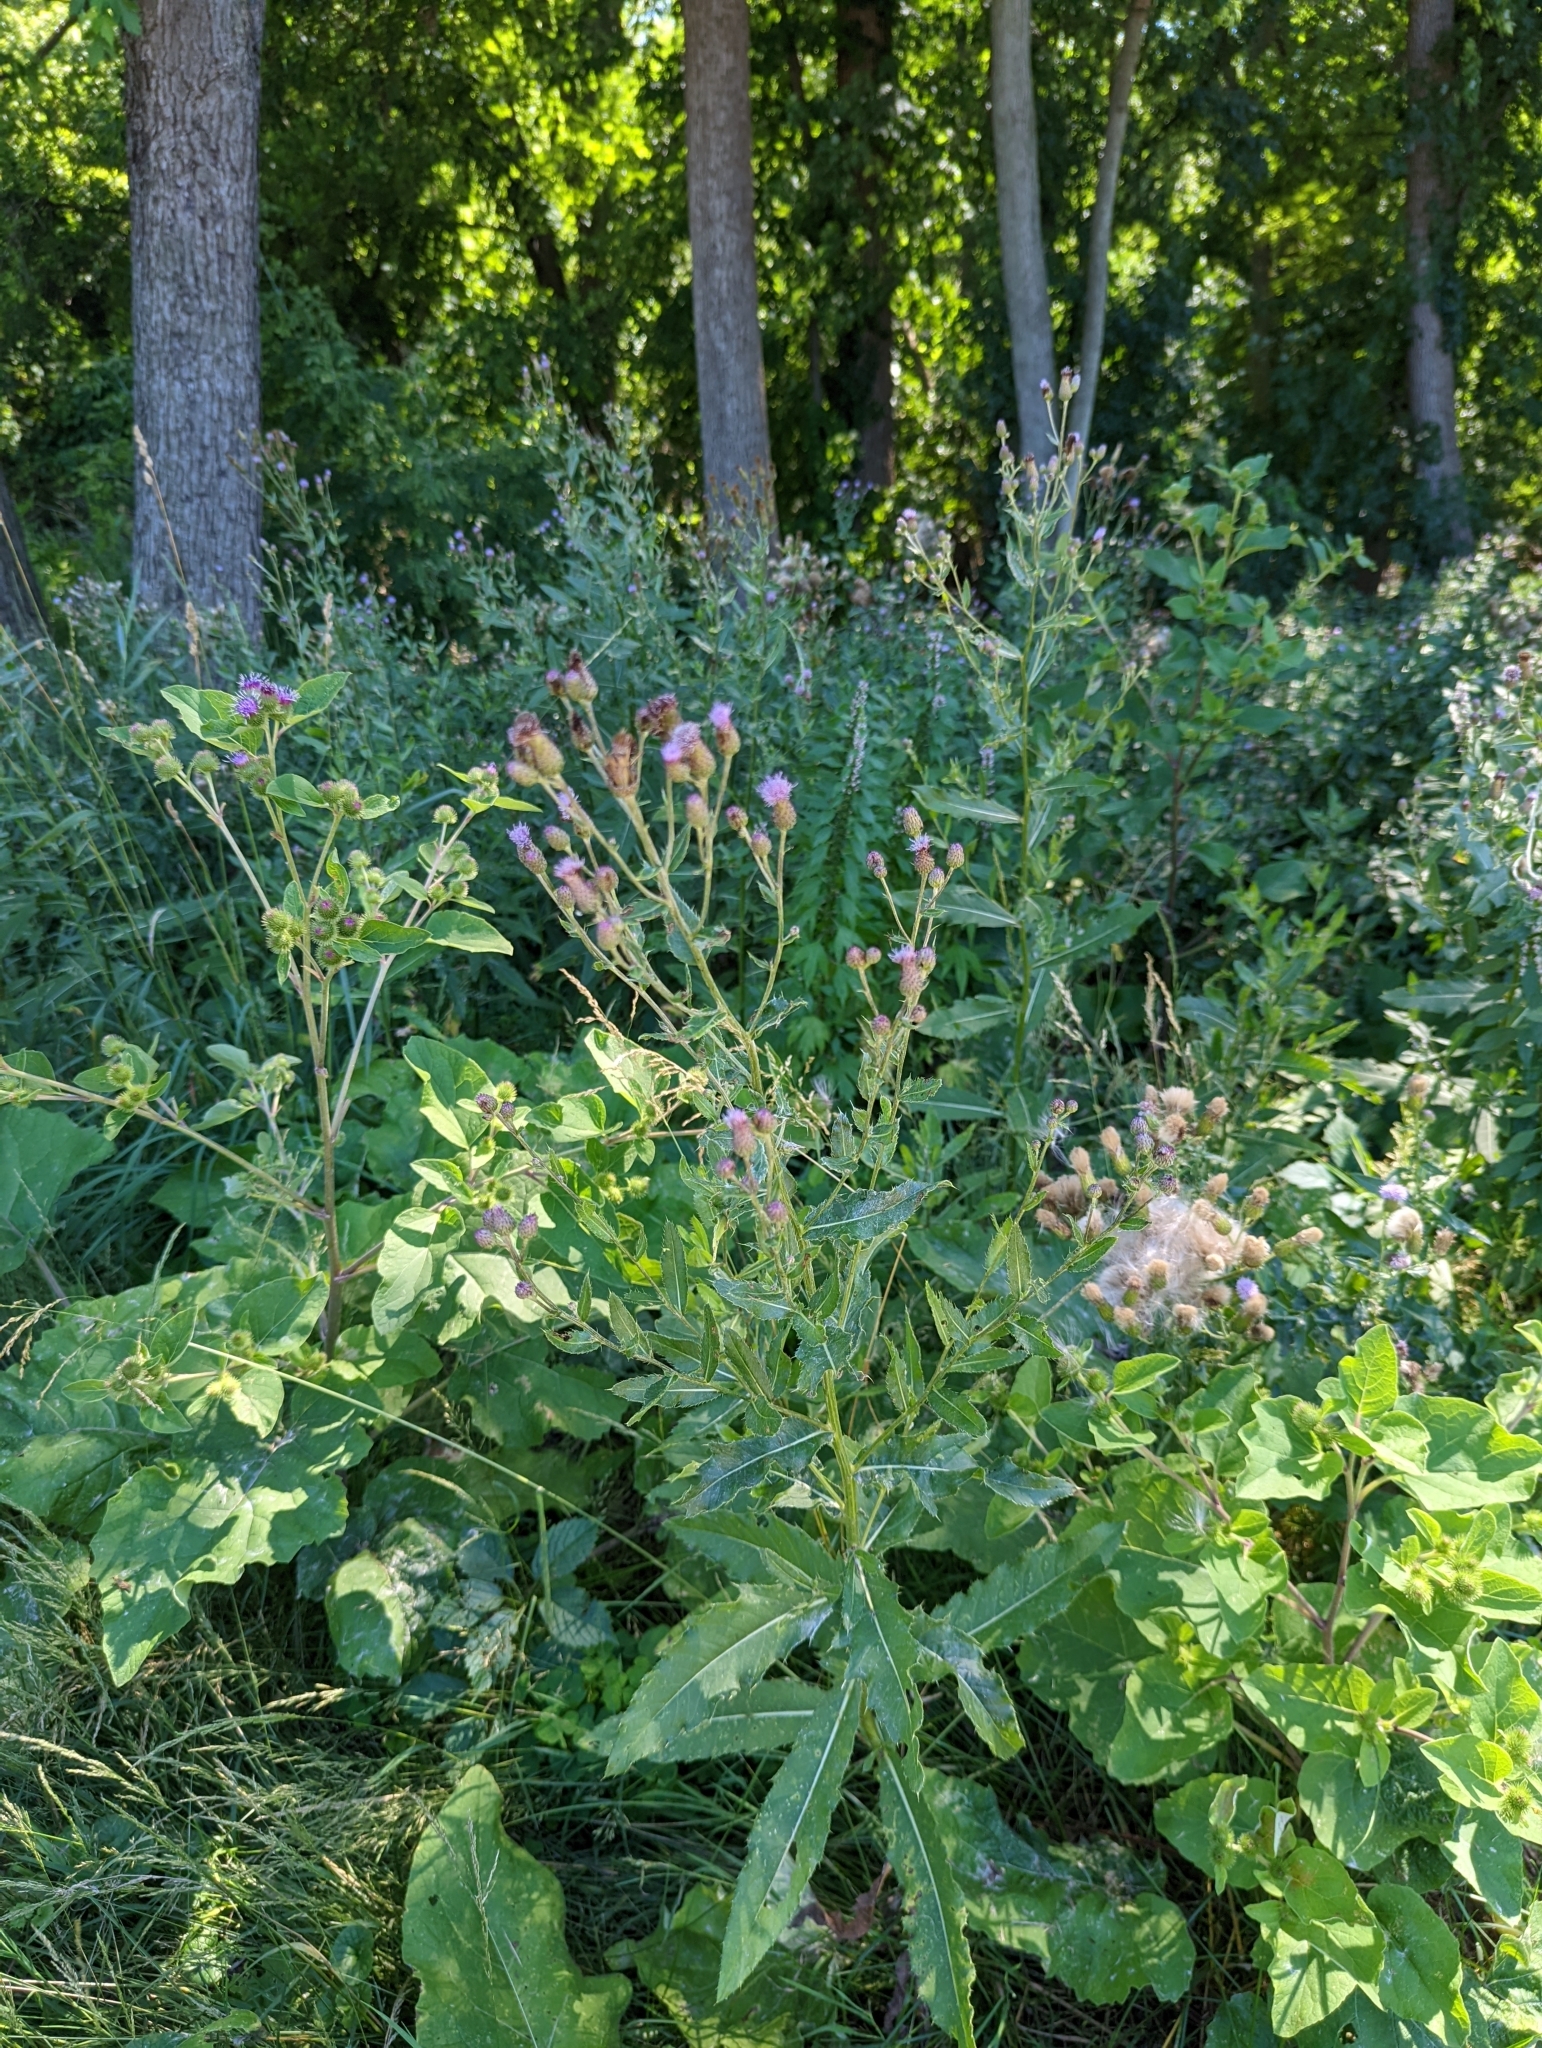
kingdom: Plantae
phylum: Tracheophyta
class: Magnoliopsida
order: Asterales
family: Asteraceae
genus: Cirsium
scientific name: Cirsium arvense
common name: Creeping thistle
